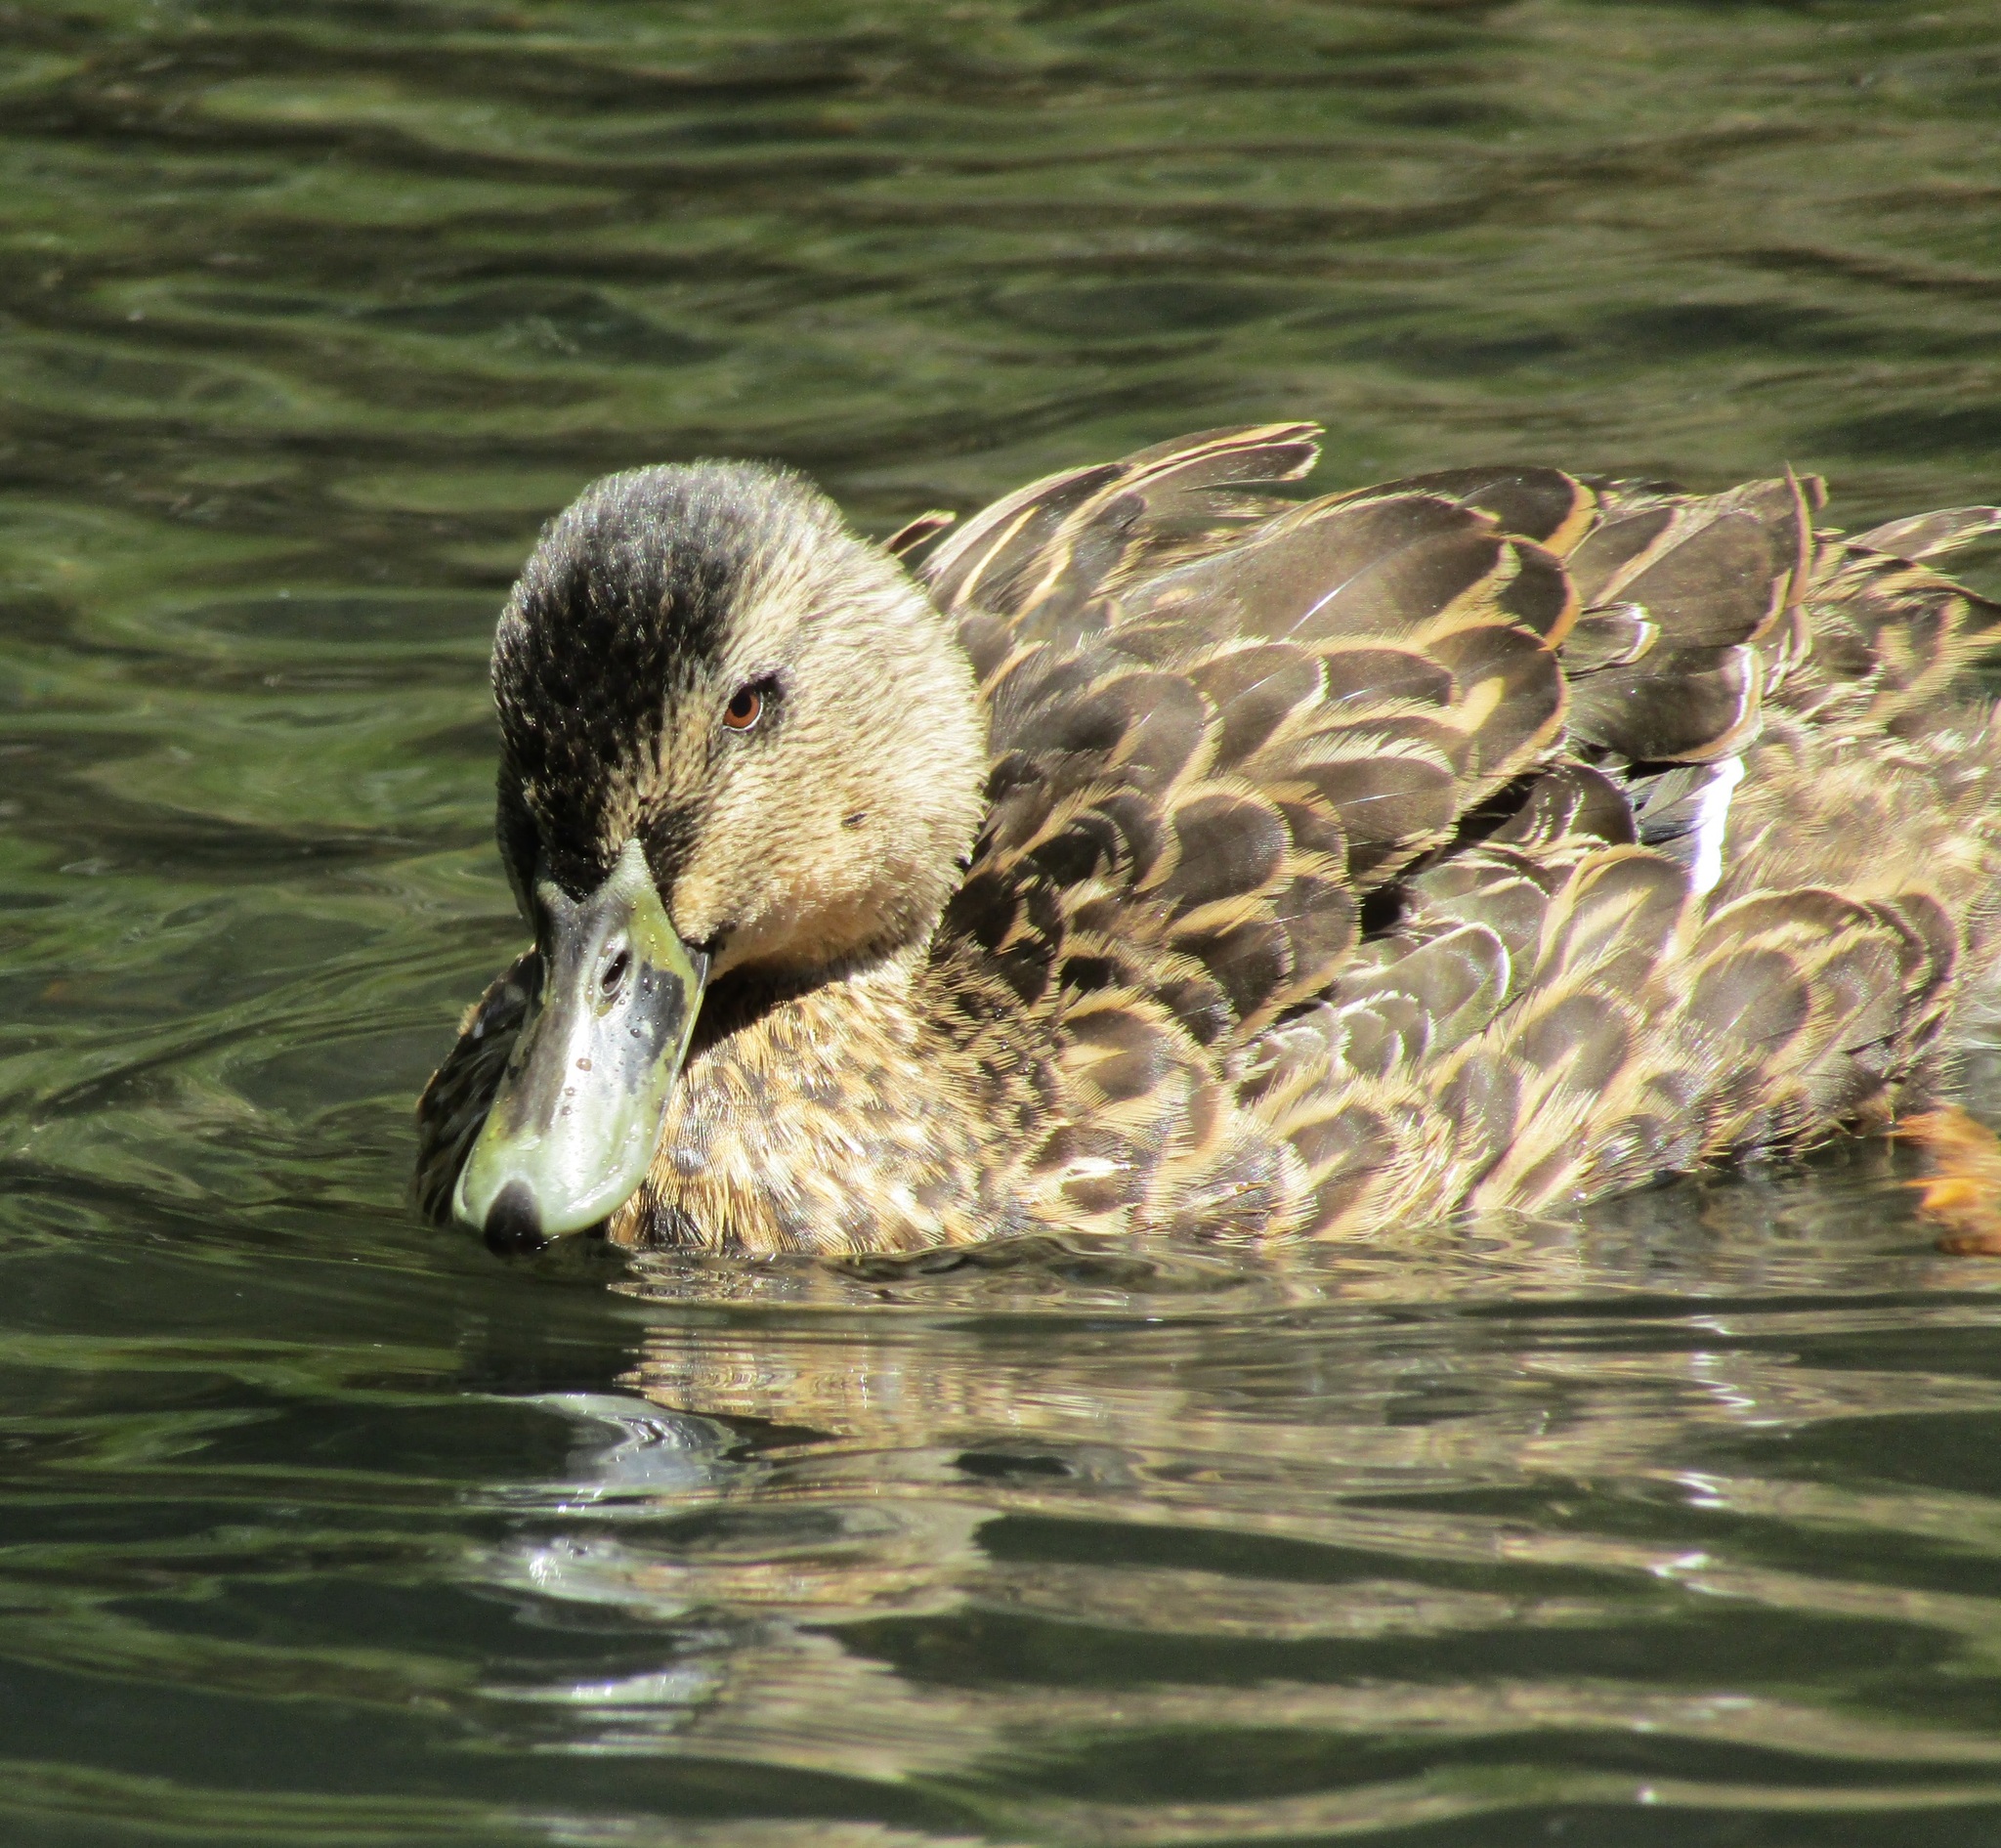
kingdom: Animalia
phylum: Chordata
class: Aves
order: Anseriformes
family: Anatidae
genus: Anas
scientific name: Anas
